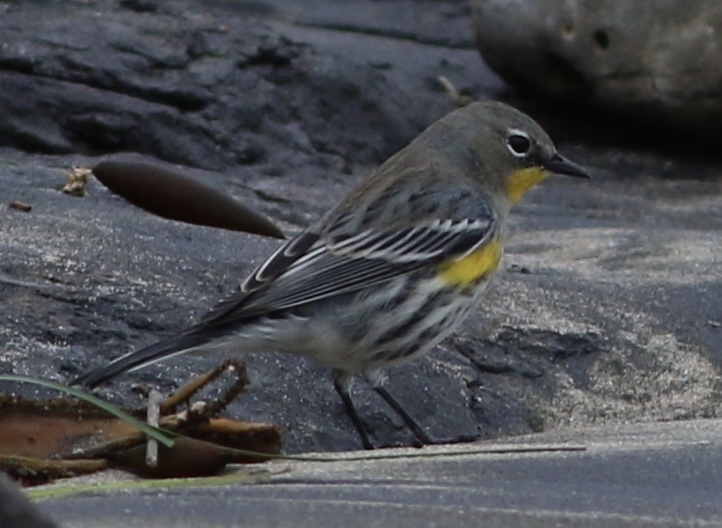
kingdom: Animalia
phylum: Chordata
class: Aves
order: Passeriformes
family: Parulidae
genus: Setophaga
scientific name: Setophaga coronata
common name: Myrtle warbler
